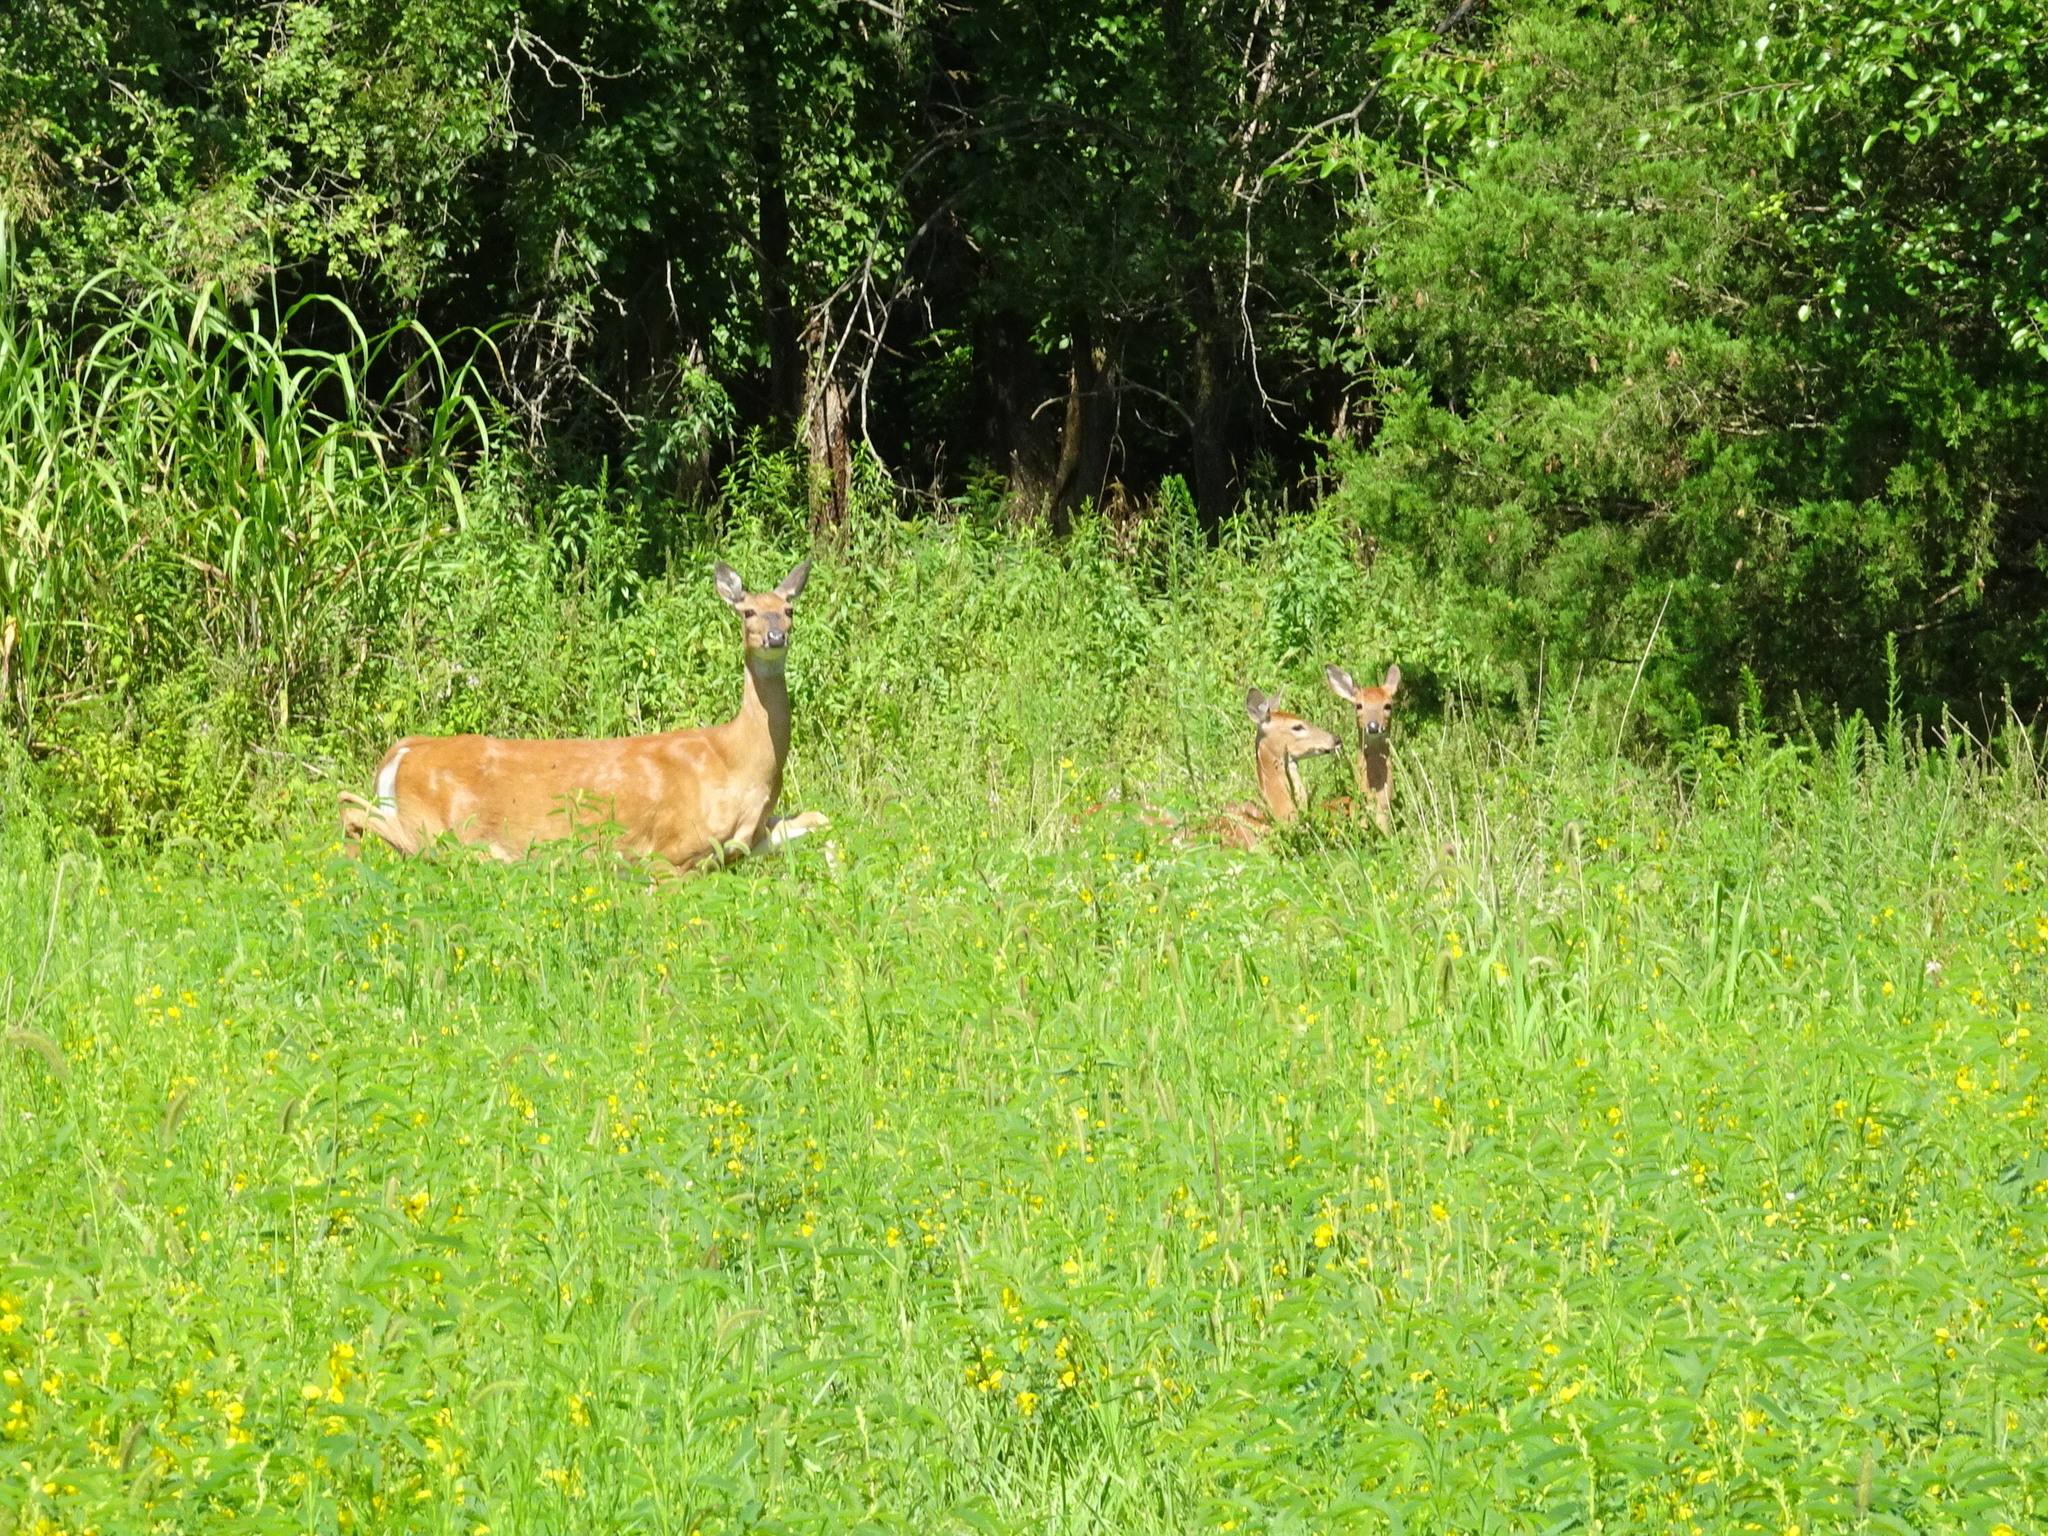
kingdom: Animalia
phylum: Chordata
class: Mammalia
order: Artiodactyla
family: Cervidae
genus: Odocoileus
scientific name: Odocoileus virginianus
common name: White-tailed deer
